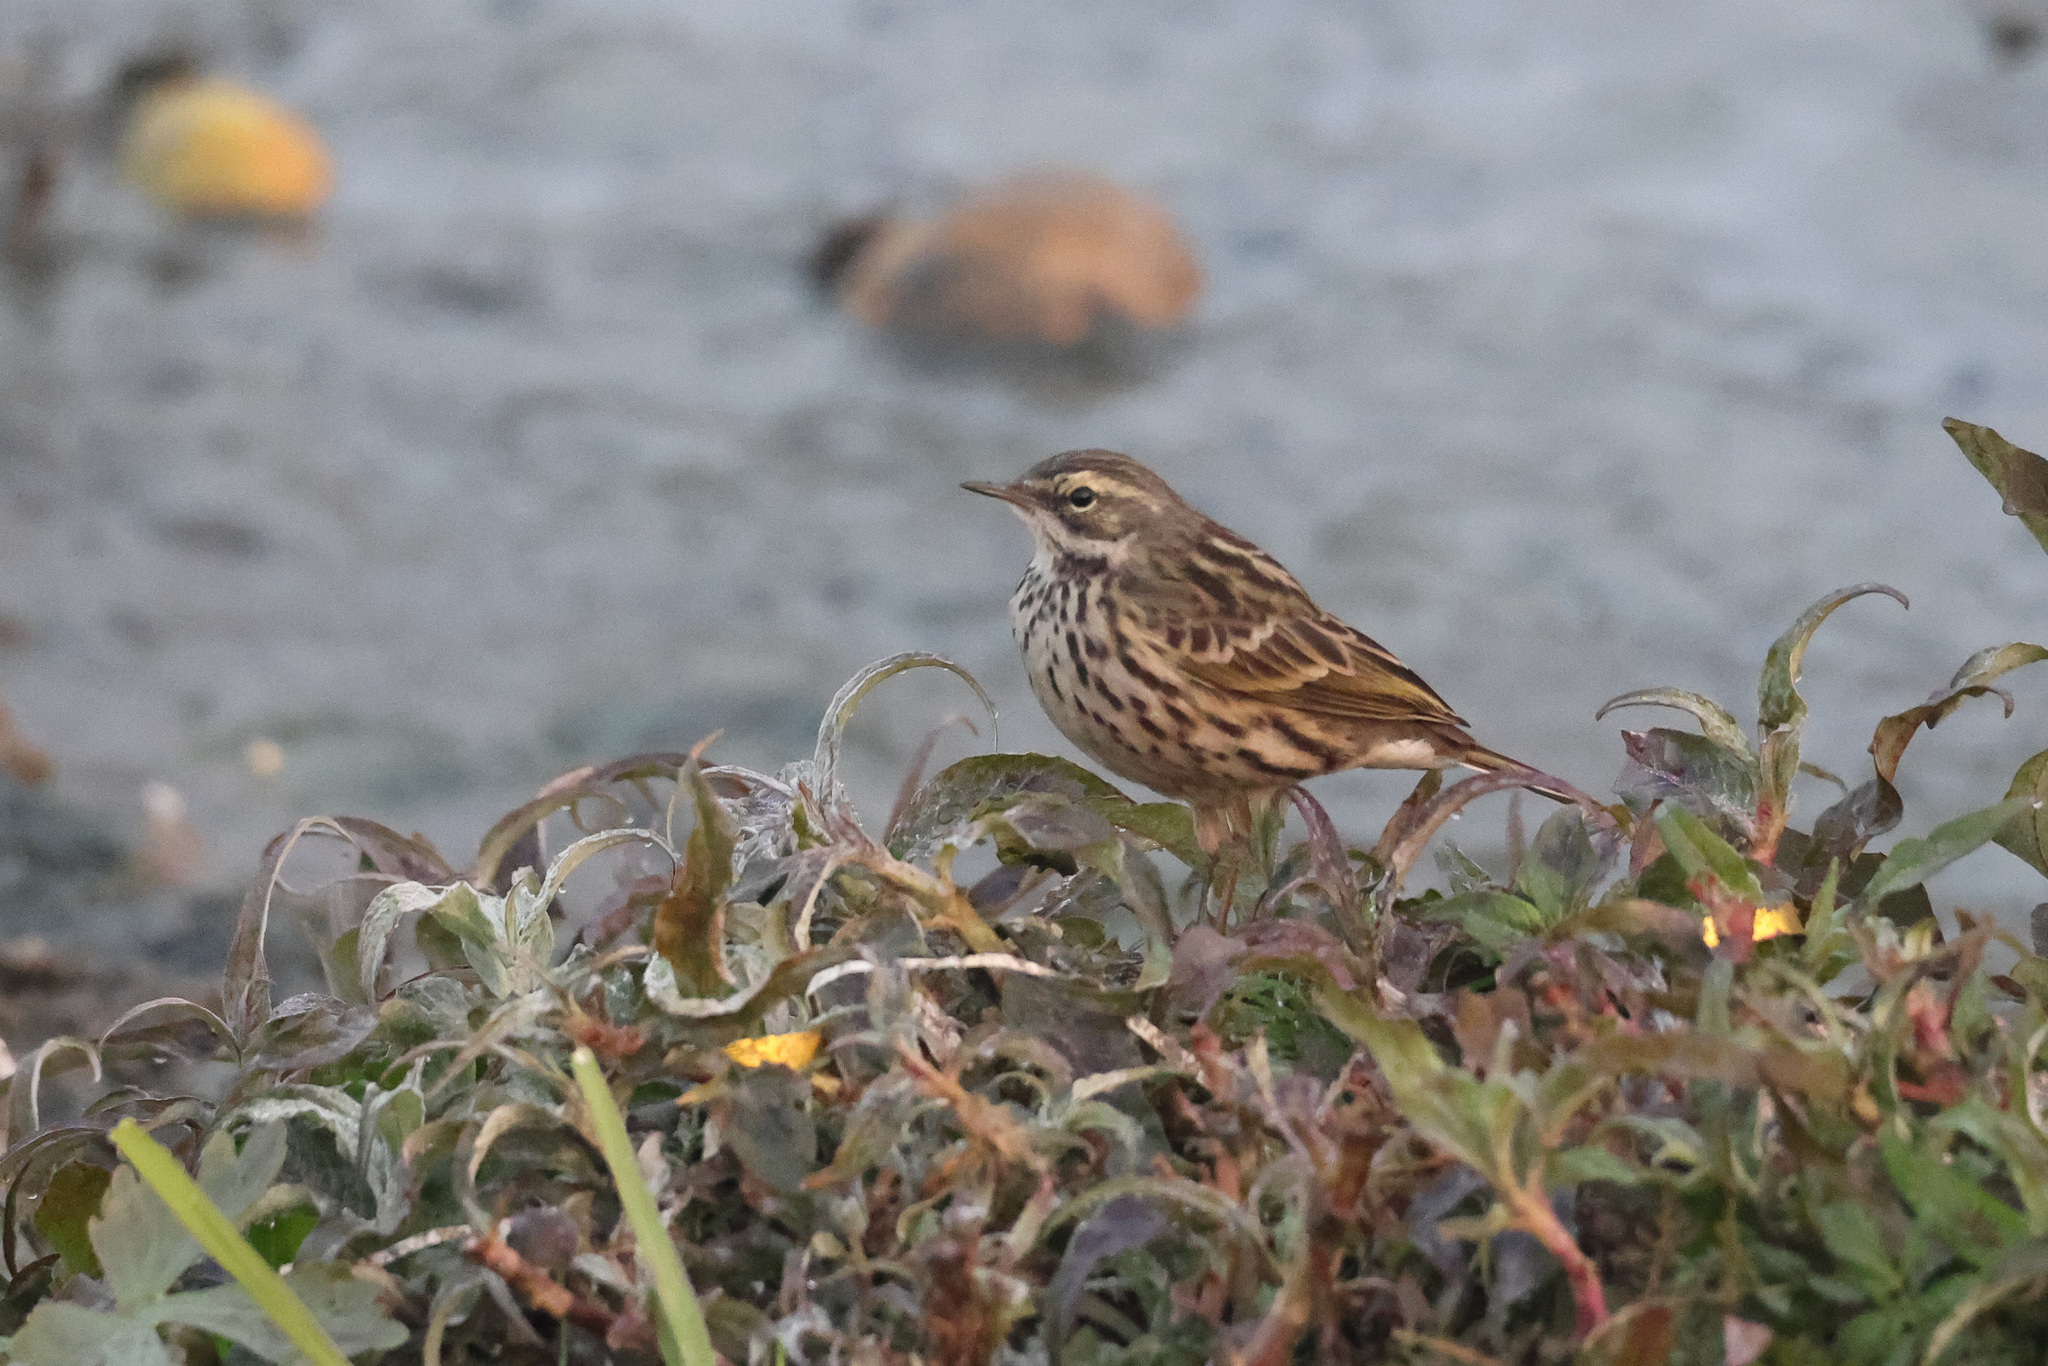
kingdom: Animalia
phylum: Chordata
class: Aves
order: Passeriformes
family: Motacillidae
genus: Anthus
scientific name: Anthus roseatus
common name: Rosy pipit
